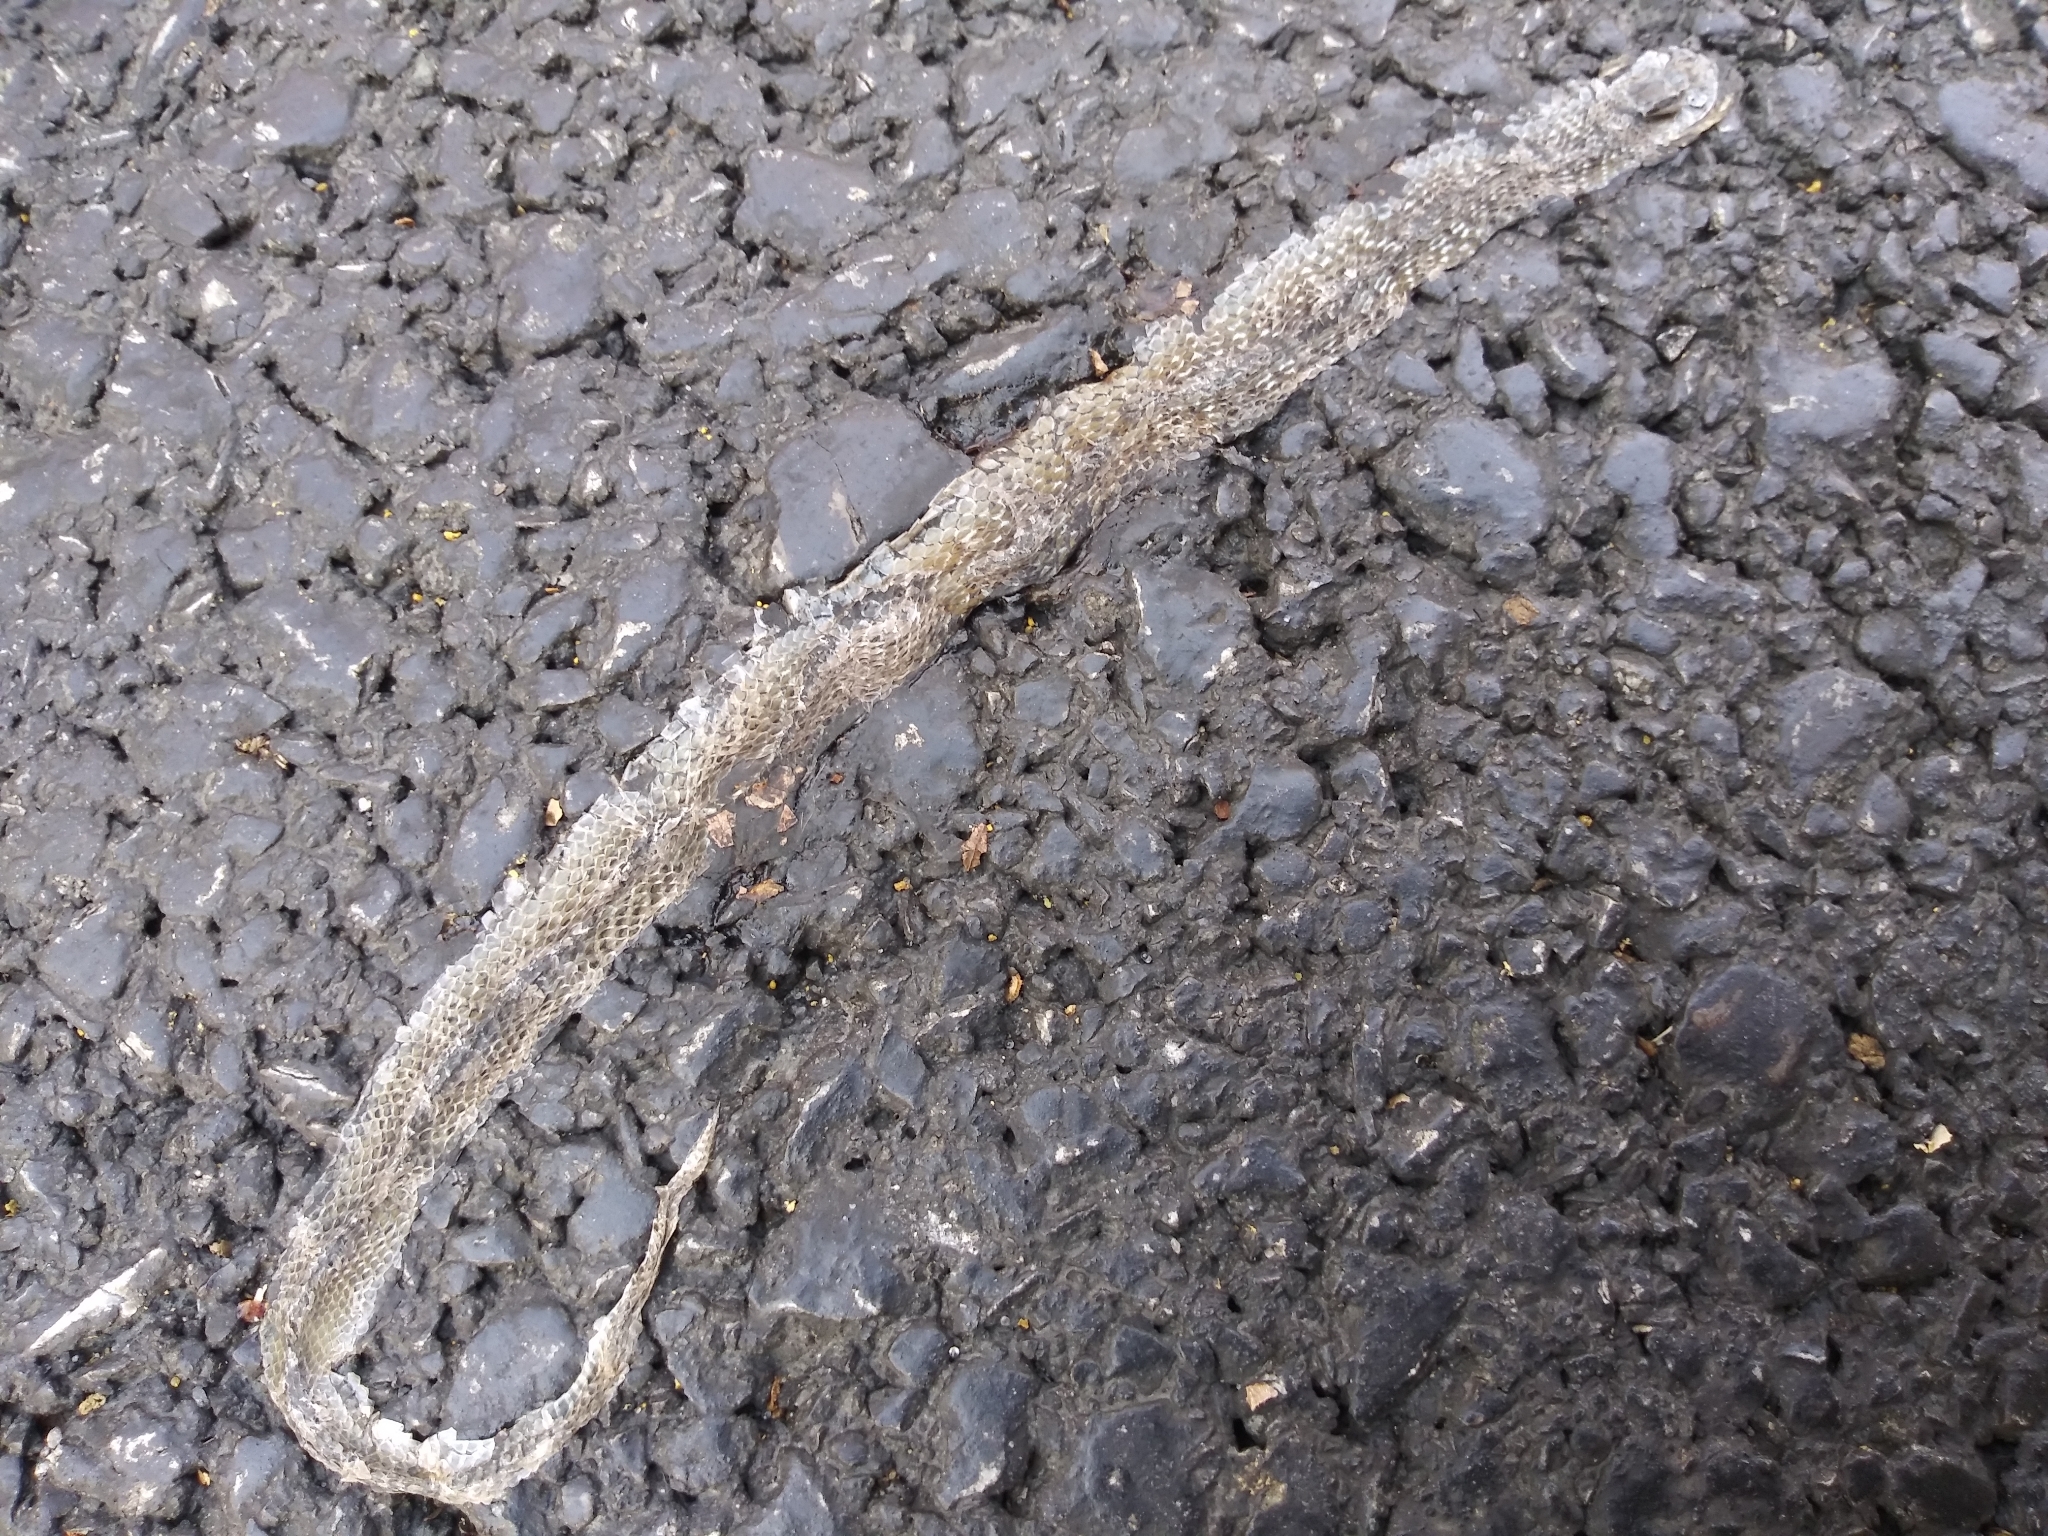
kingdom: Animalia
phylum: Chordata
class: Squamata
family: Colubridae
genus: Storeria
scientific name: Storeria dekayi
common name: (dekay’s) brown snake
